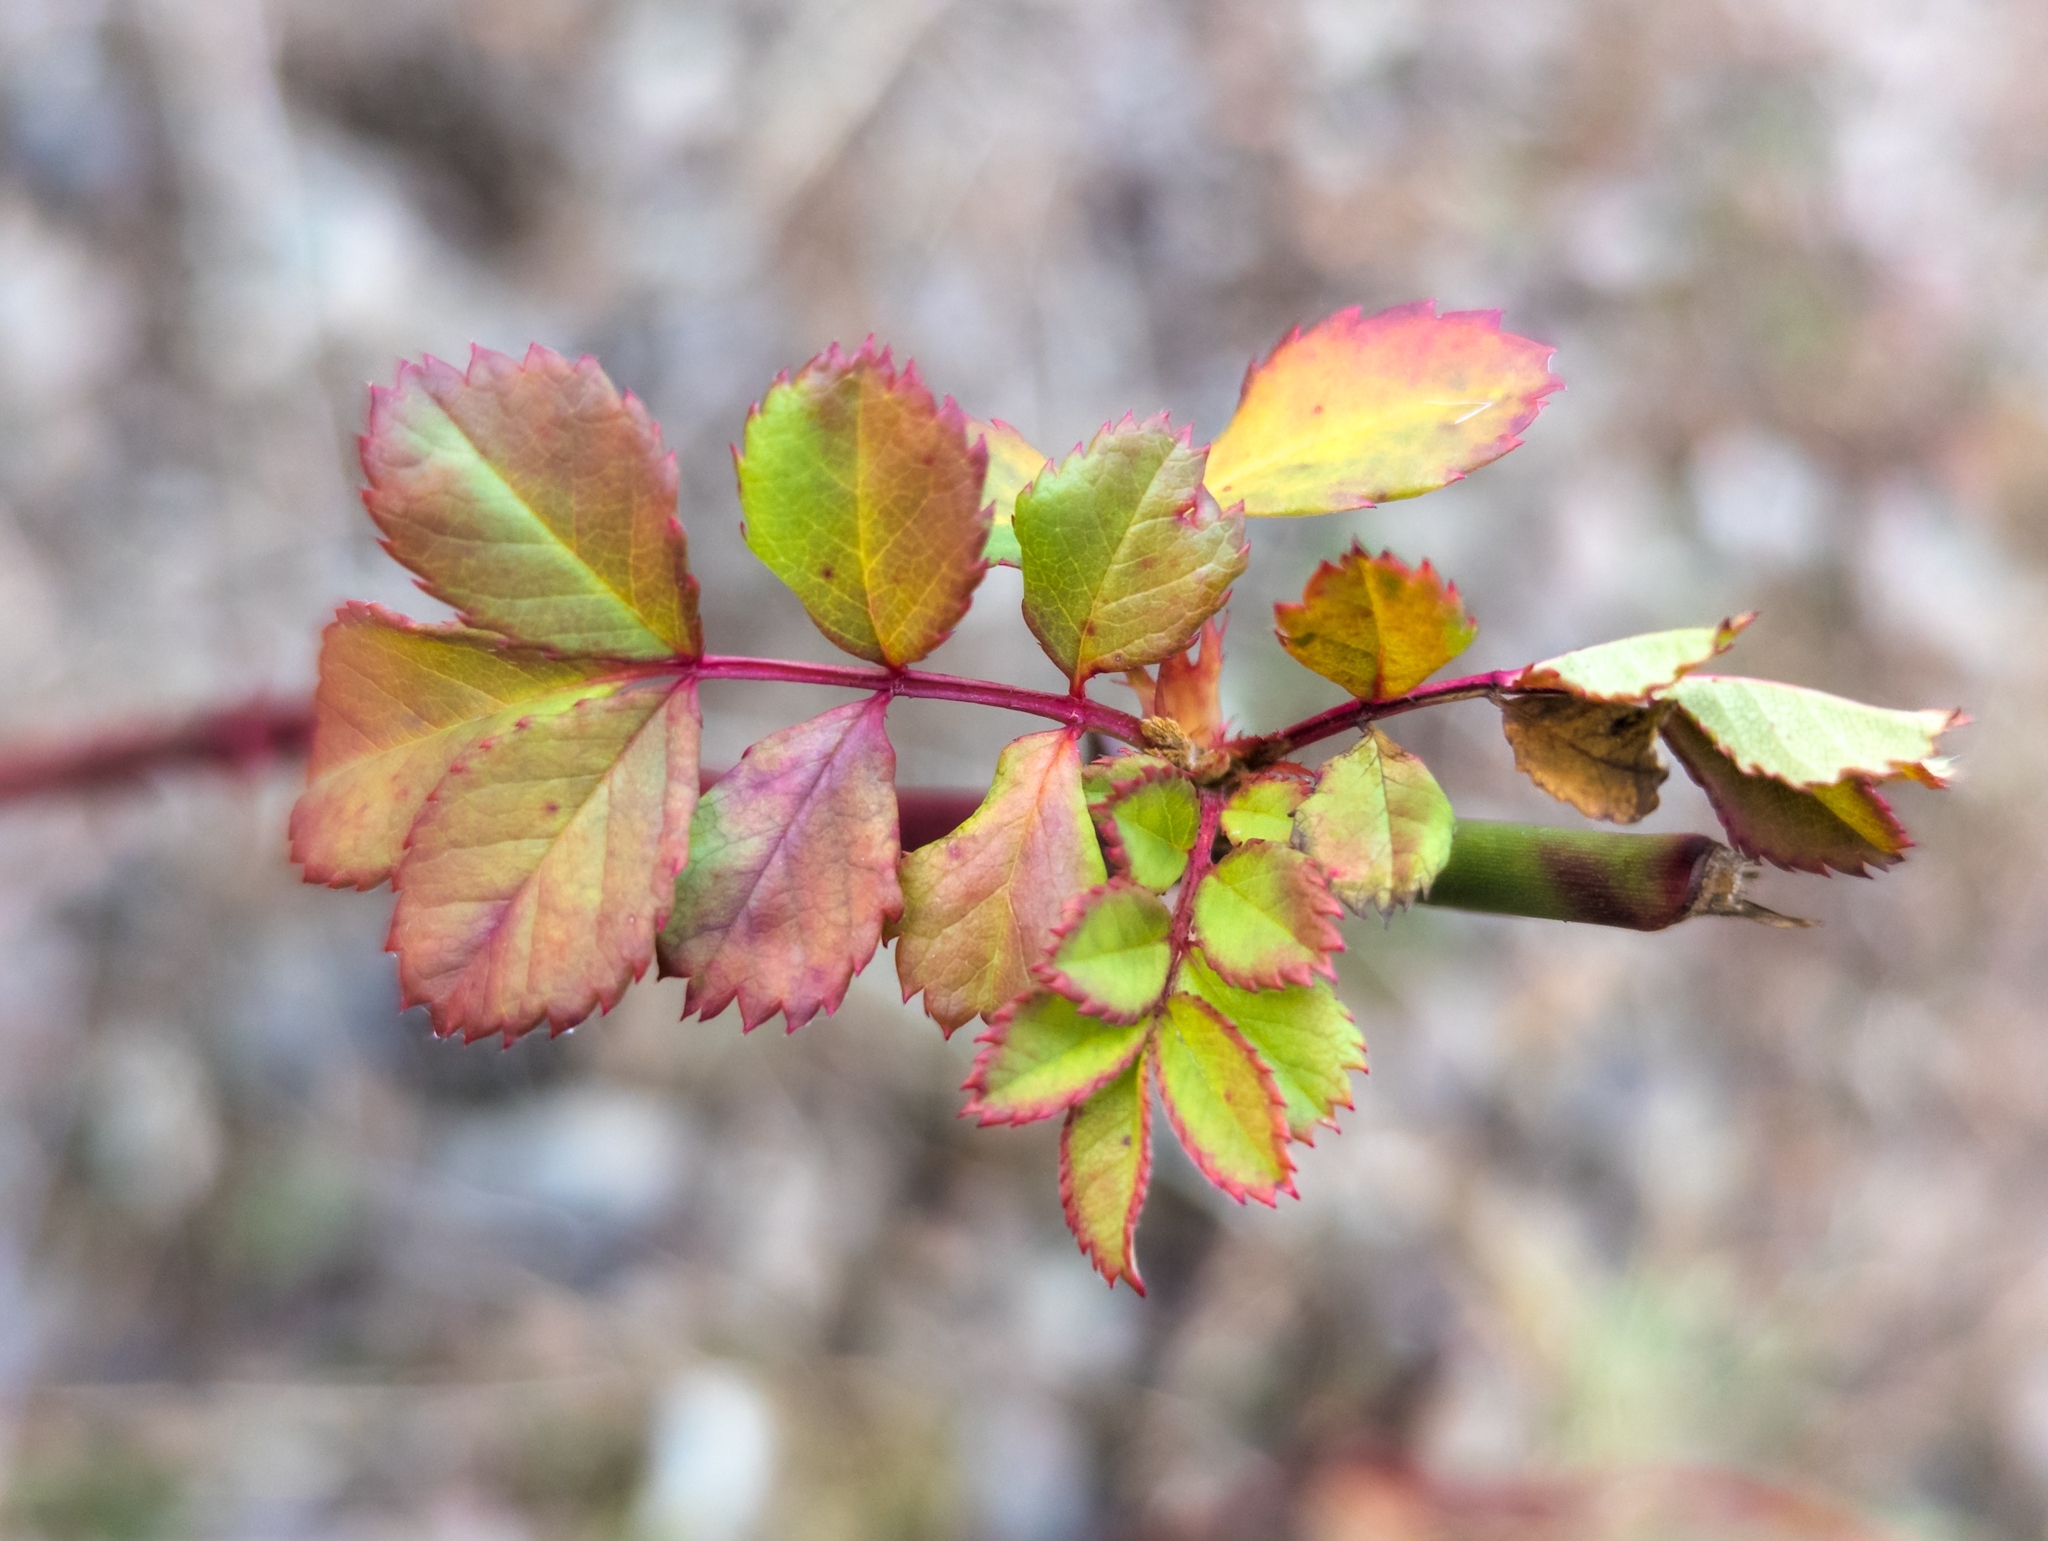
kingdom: Plantae
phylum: Tracheophyta
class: Magnoliopsida
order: Rosales
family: Rosaceae
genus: Rosa
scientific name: Rosa multiflora
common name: Multiflora rose
